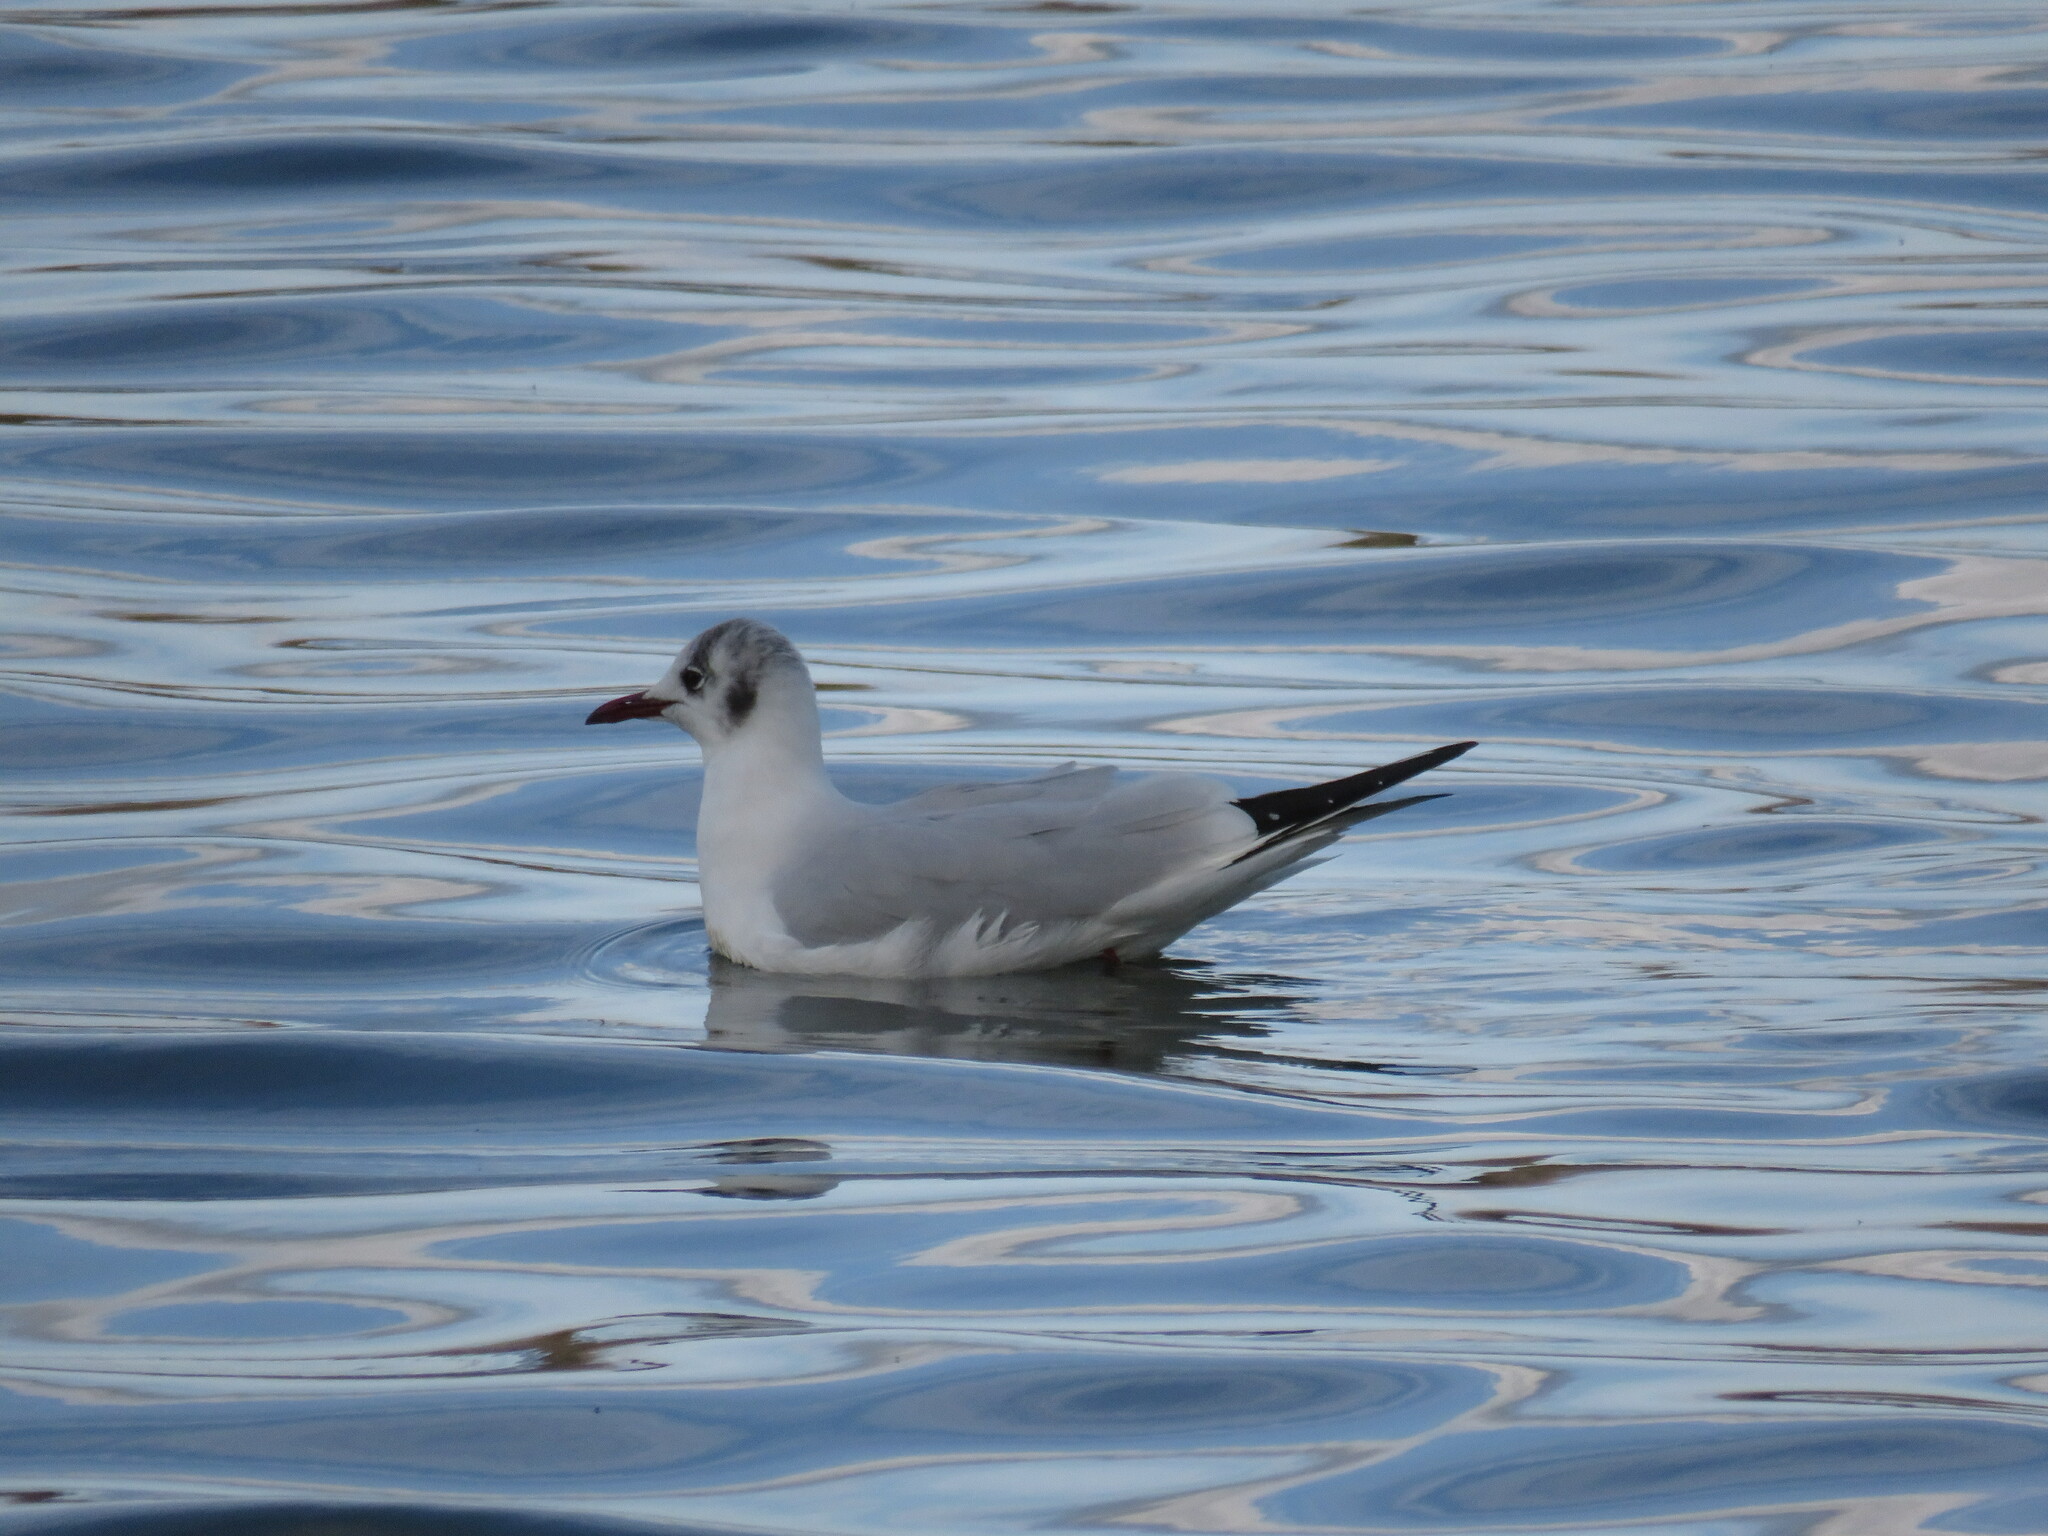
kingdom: Animalia
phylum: Chordata
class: Aves
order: Charadriiformes
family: Laridae
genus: Chroicocephalus
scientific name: Chroicocephalus ridibundus
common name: Black-headed gull
